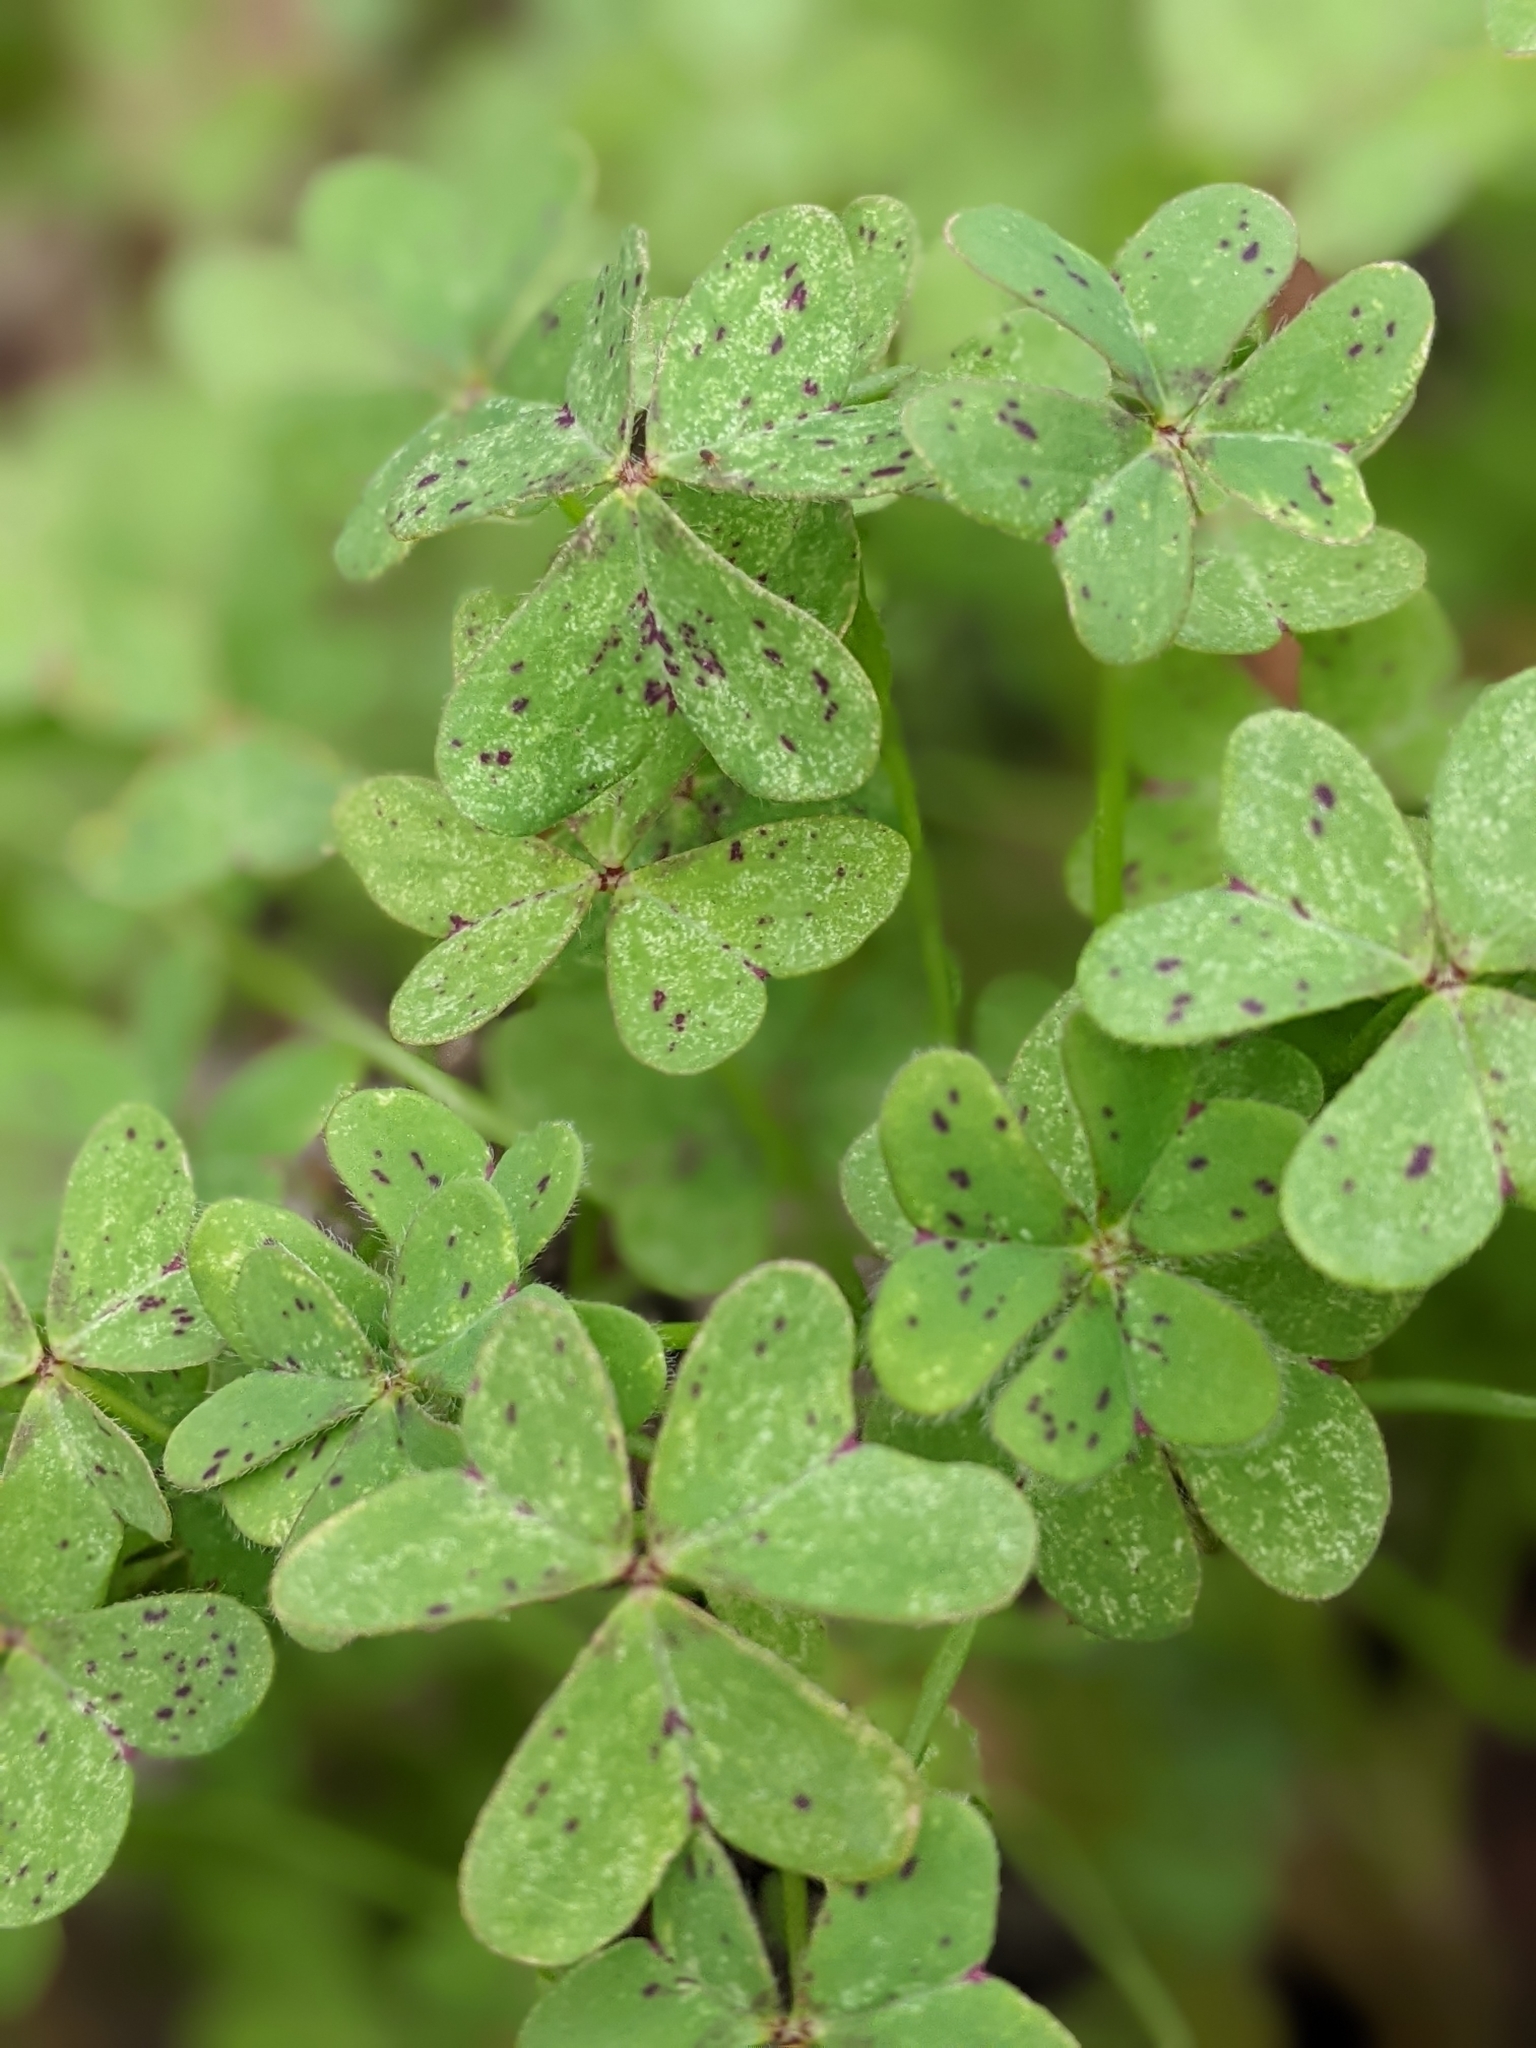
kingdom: Plantae
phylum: Tracheophyta
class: Magnoliopsida
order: Oxalidales
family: Oxalidaceae
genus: Oxalis
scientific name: Oxalis pes-caprae
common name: Bermuda-buttercup
